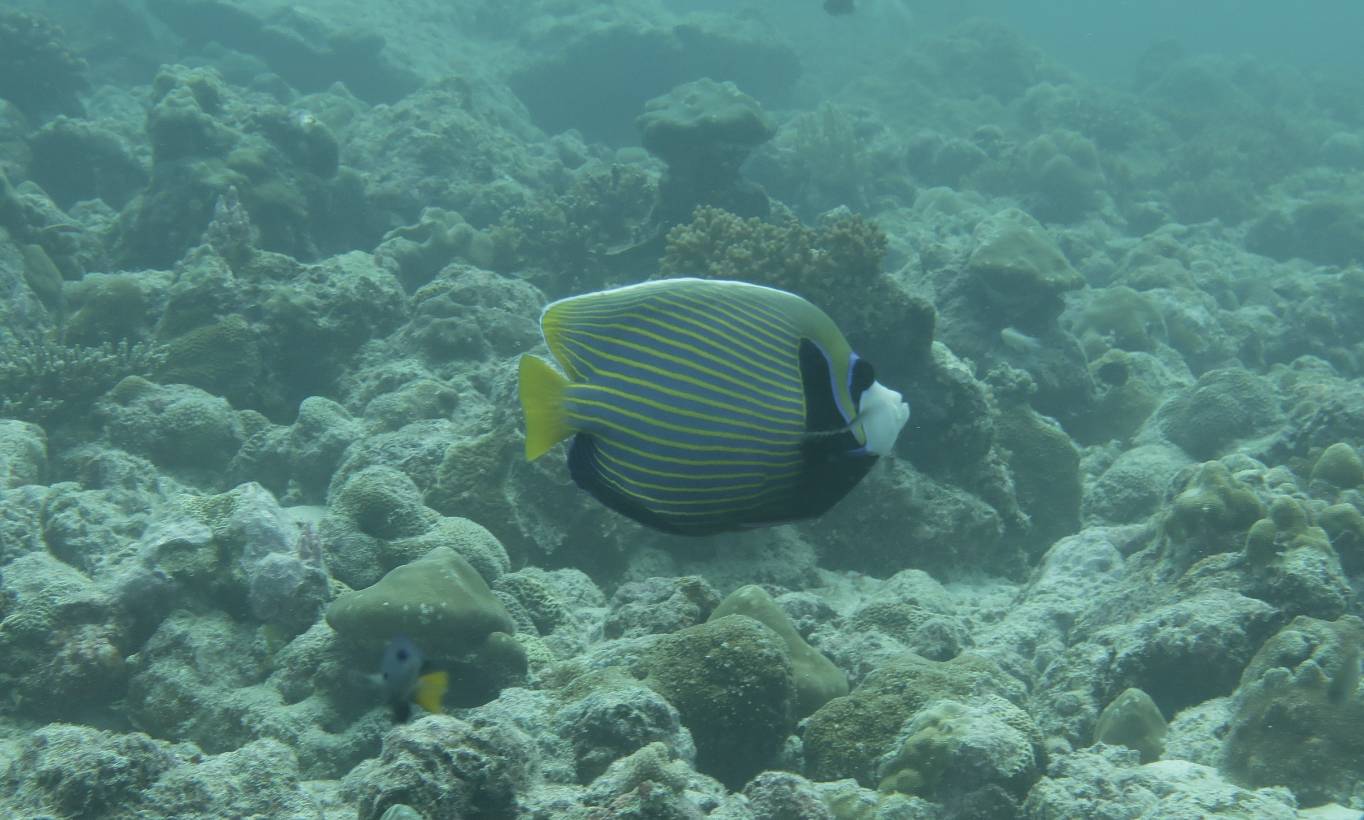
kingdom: Animalia
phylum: Chordata
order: Perciformes
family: Pomacanthidae
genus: Pomacanthus
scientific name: Pomacanthus imperator
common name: Emperor angelfish
